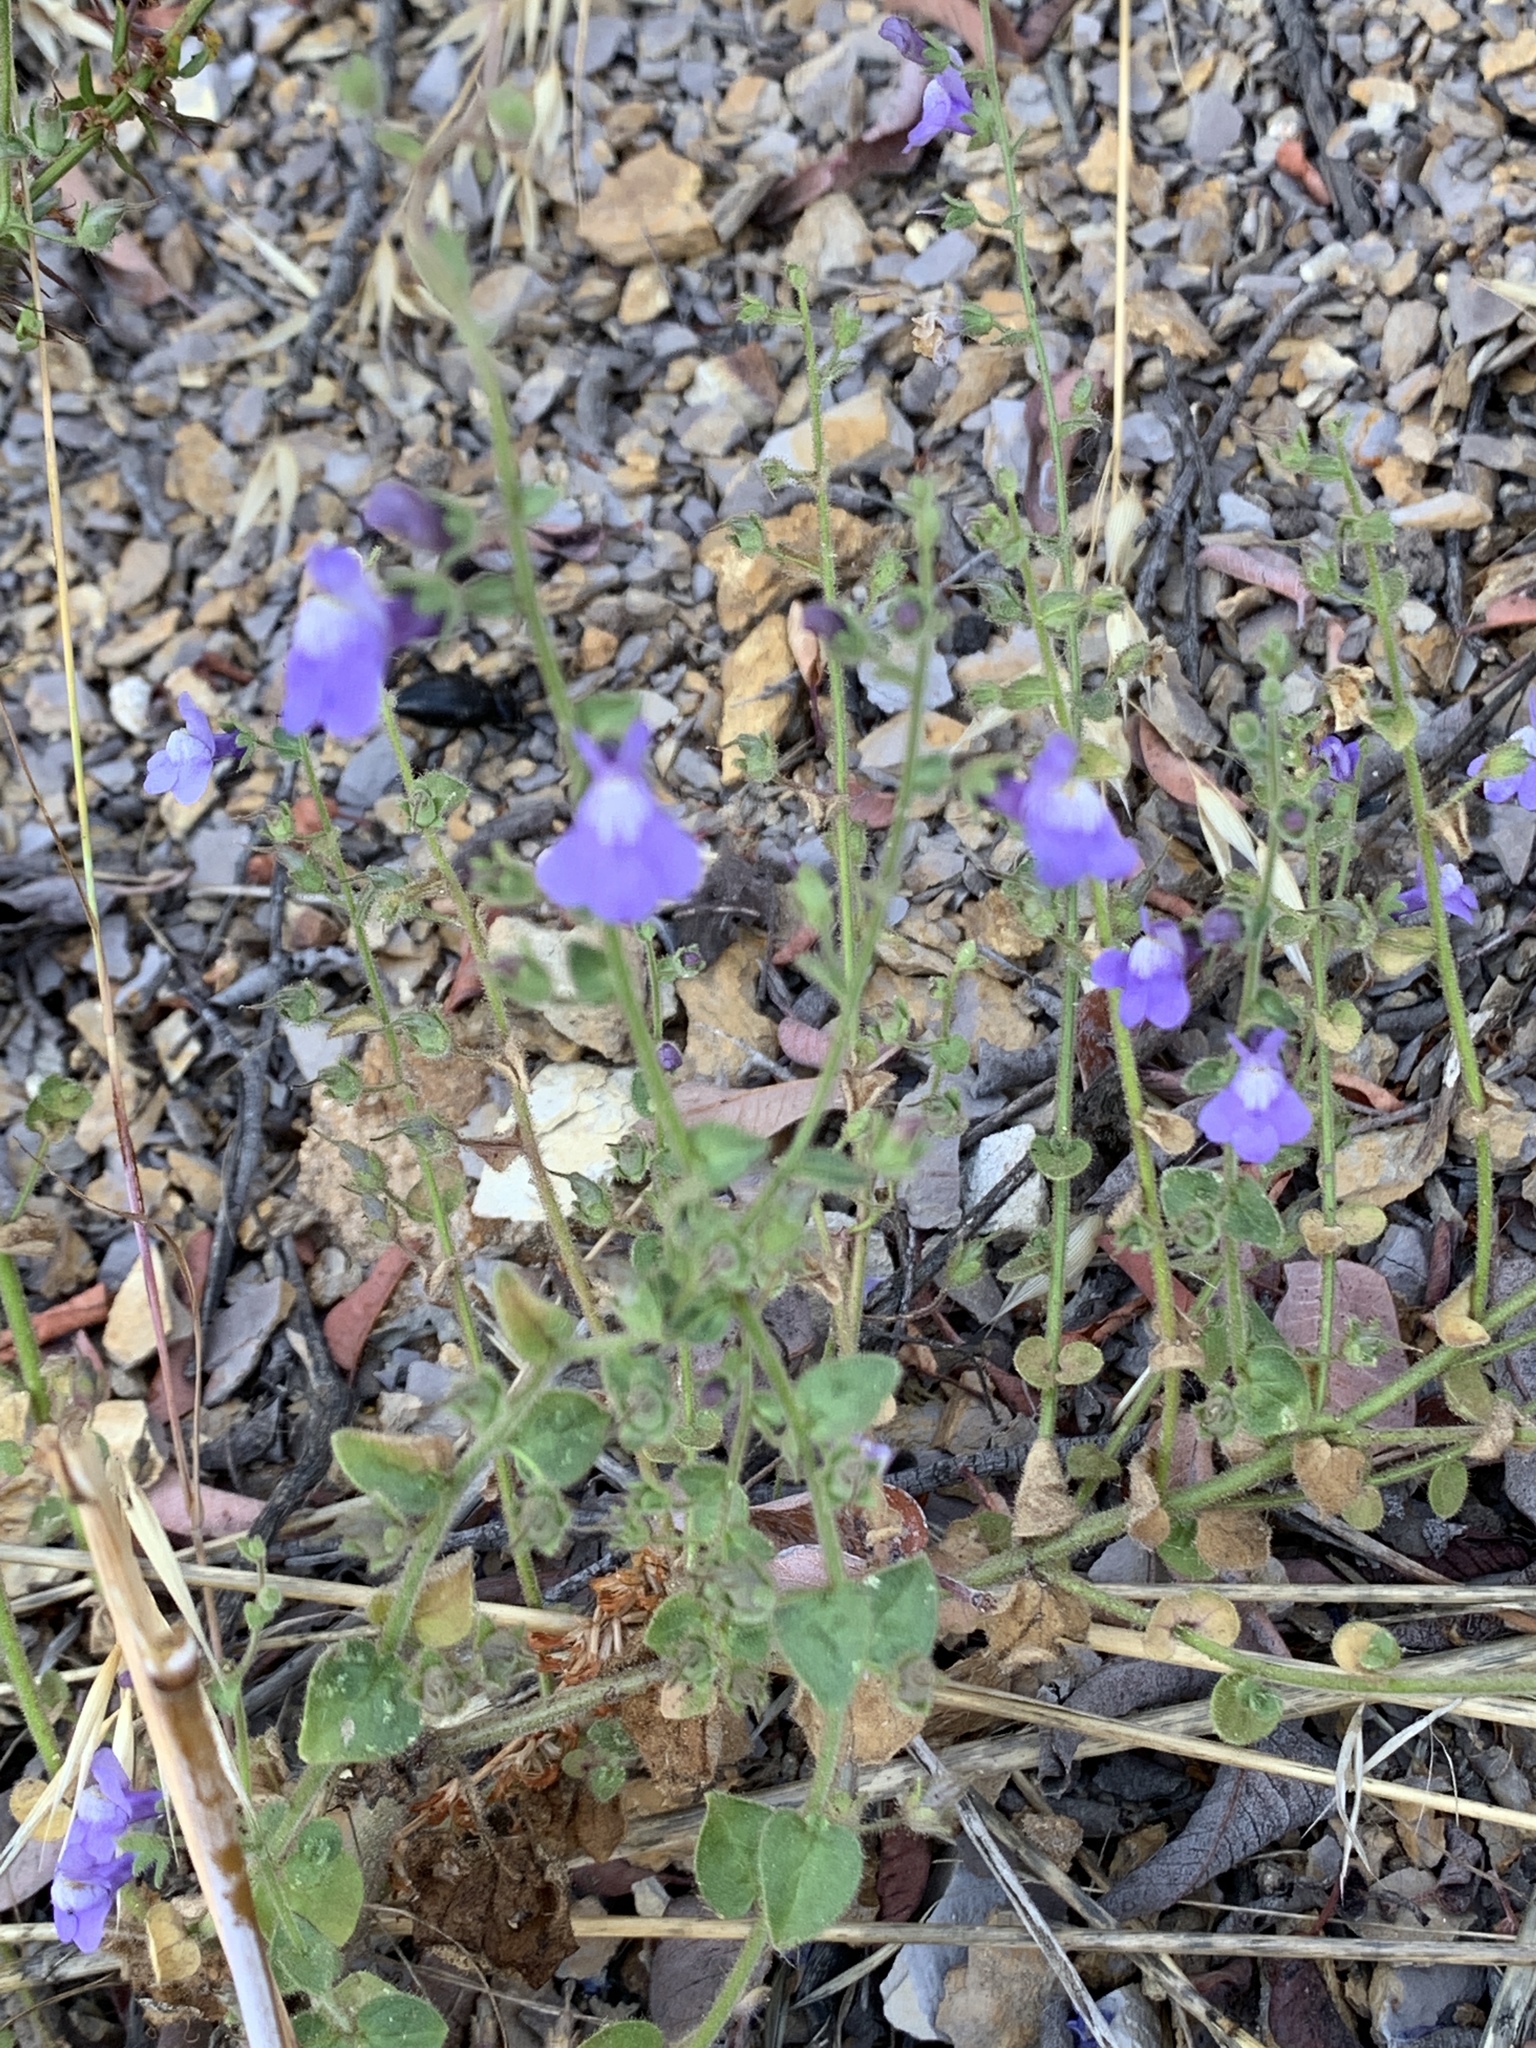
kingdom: Plantae
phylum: Tracheophyta
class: Magnoliopsida
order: Lamiales
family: Plantaginaceae
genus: Sairocarpus
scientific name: Sairocarpus nuttallianus
